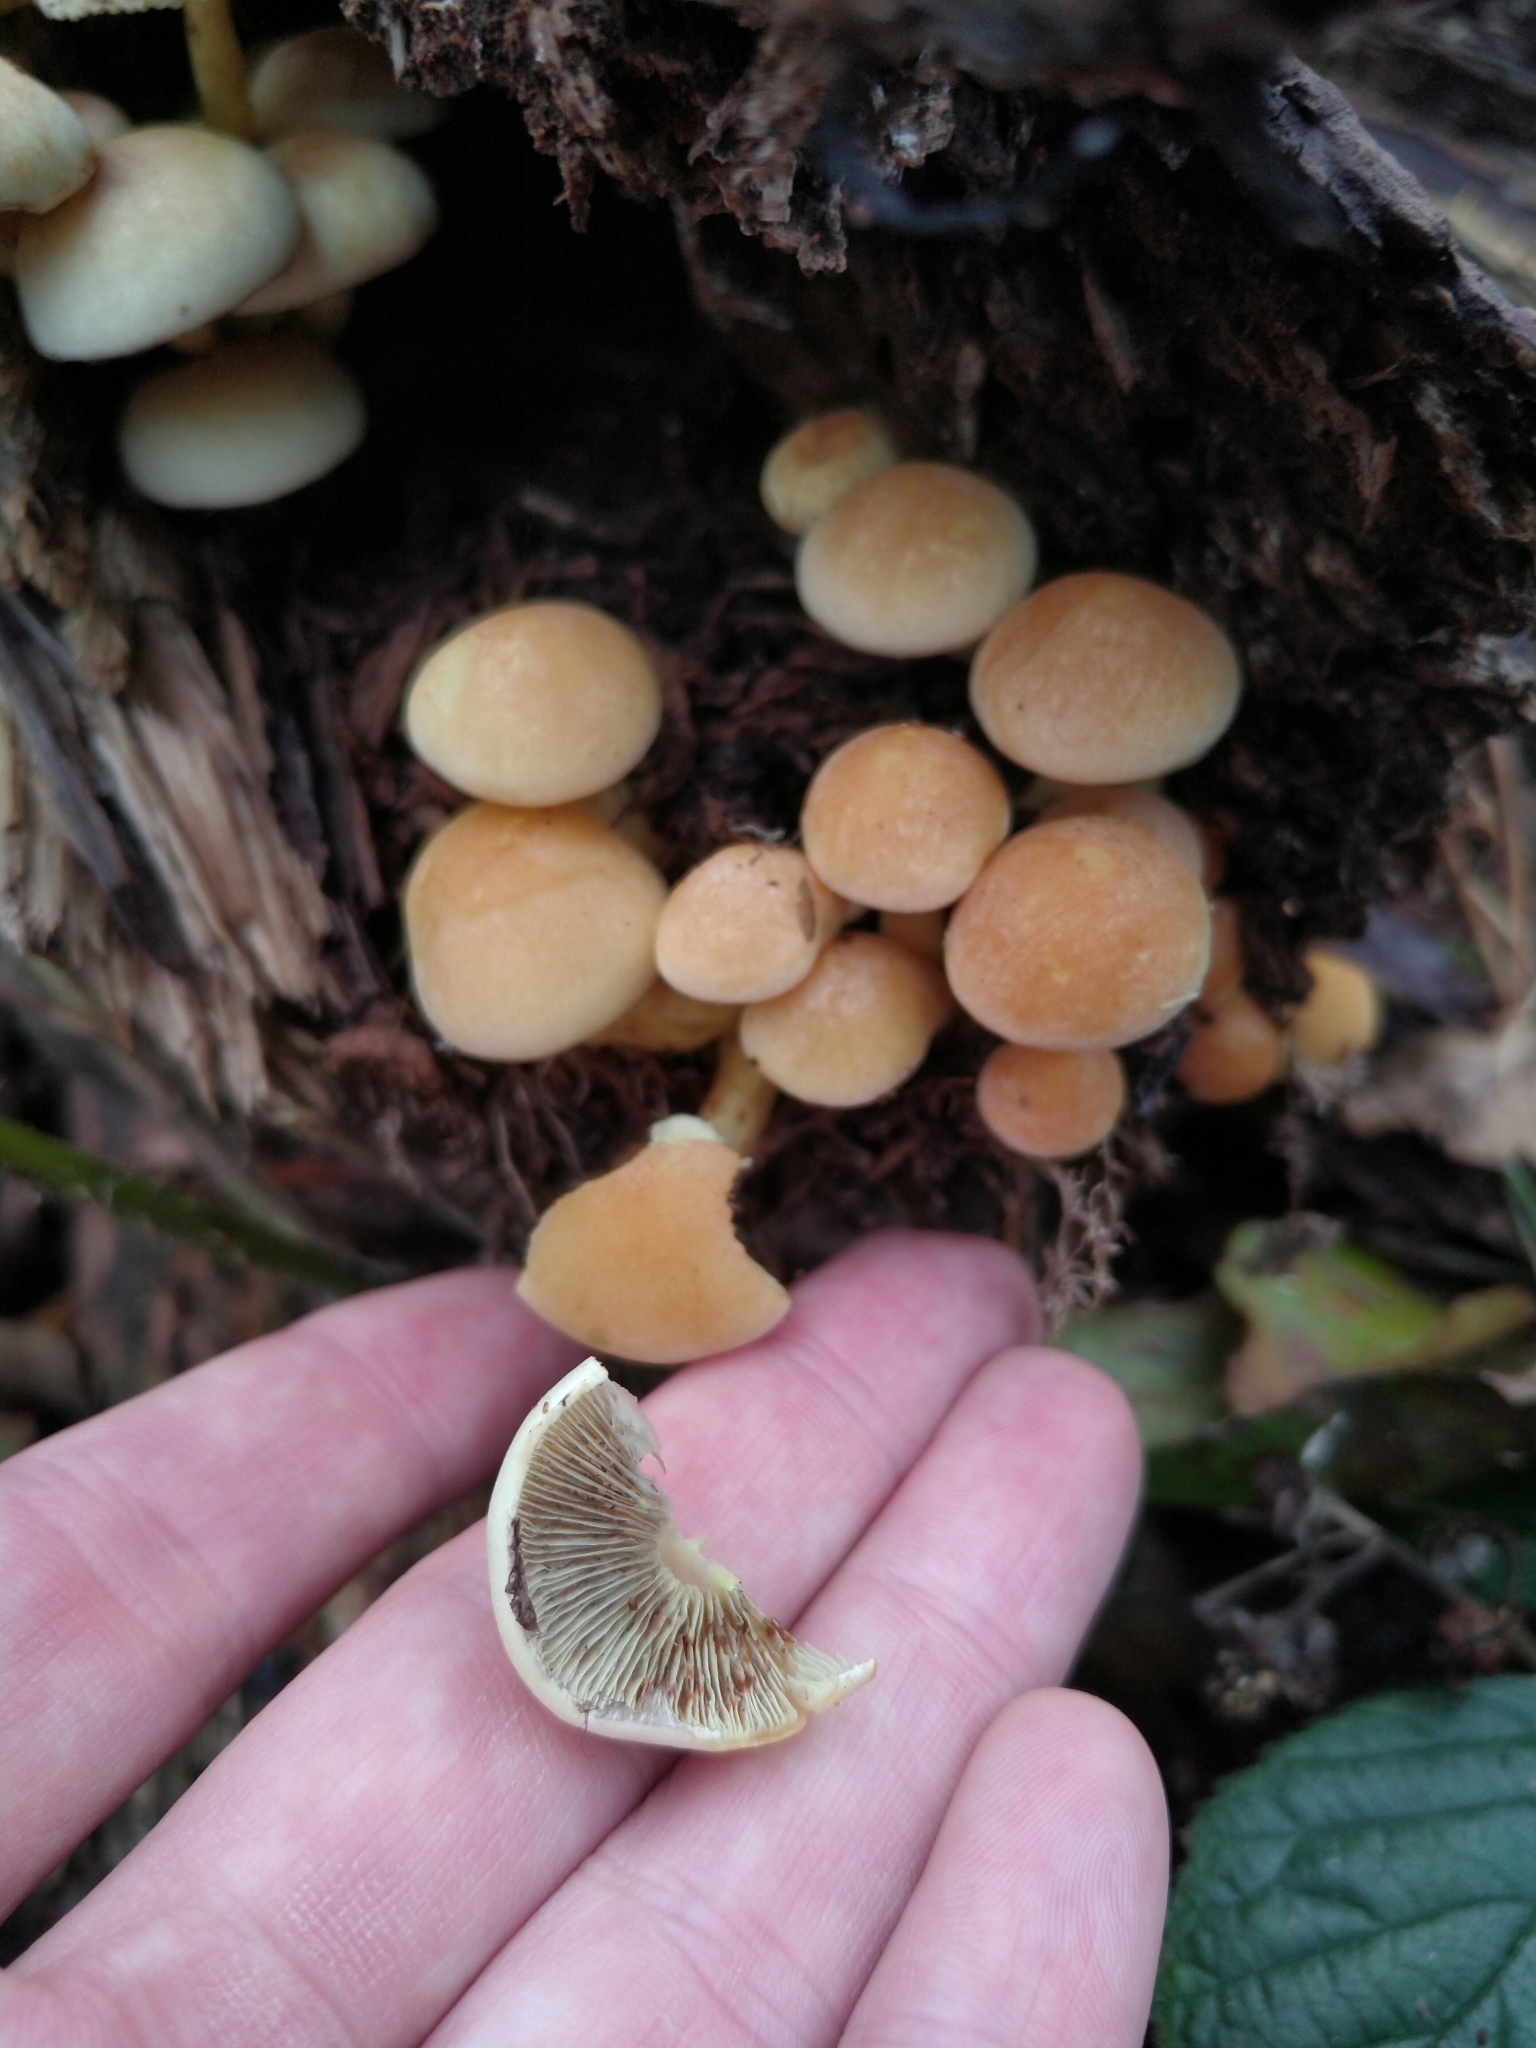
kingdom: Fungi
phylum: Basidiomycota
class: Agaricomycetes
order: Agaricales
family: Strophariaceae
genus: Hypholoma
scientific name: Hypholoma fasciculare
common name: Sulphur tuft
